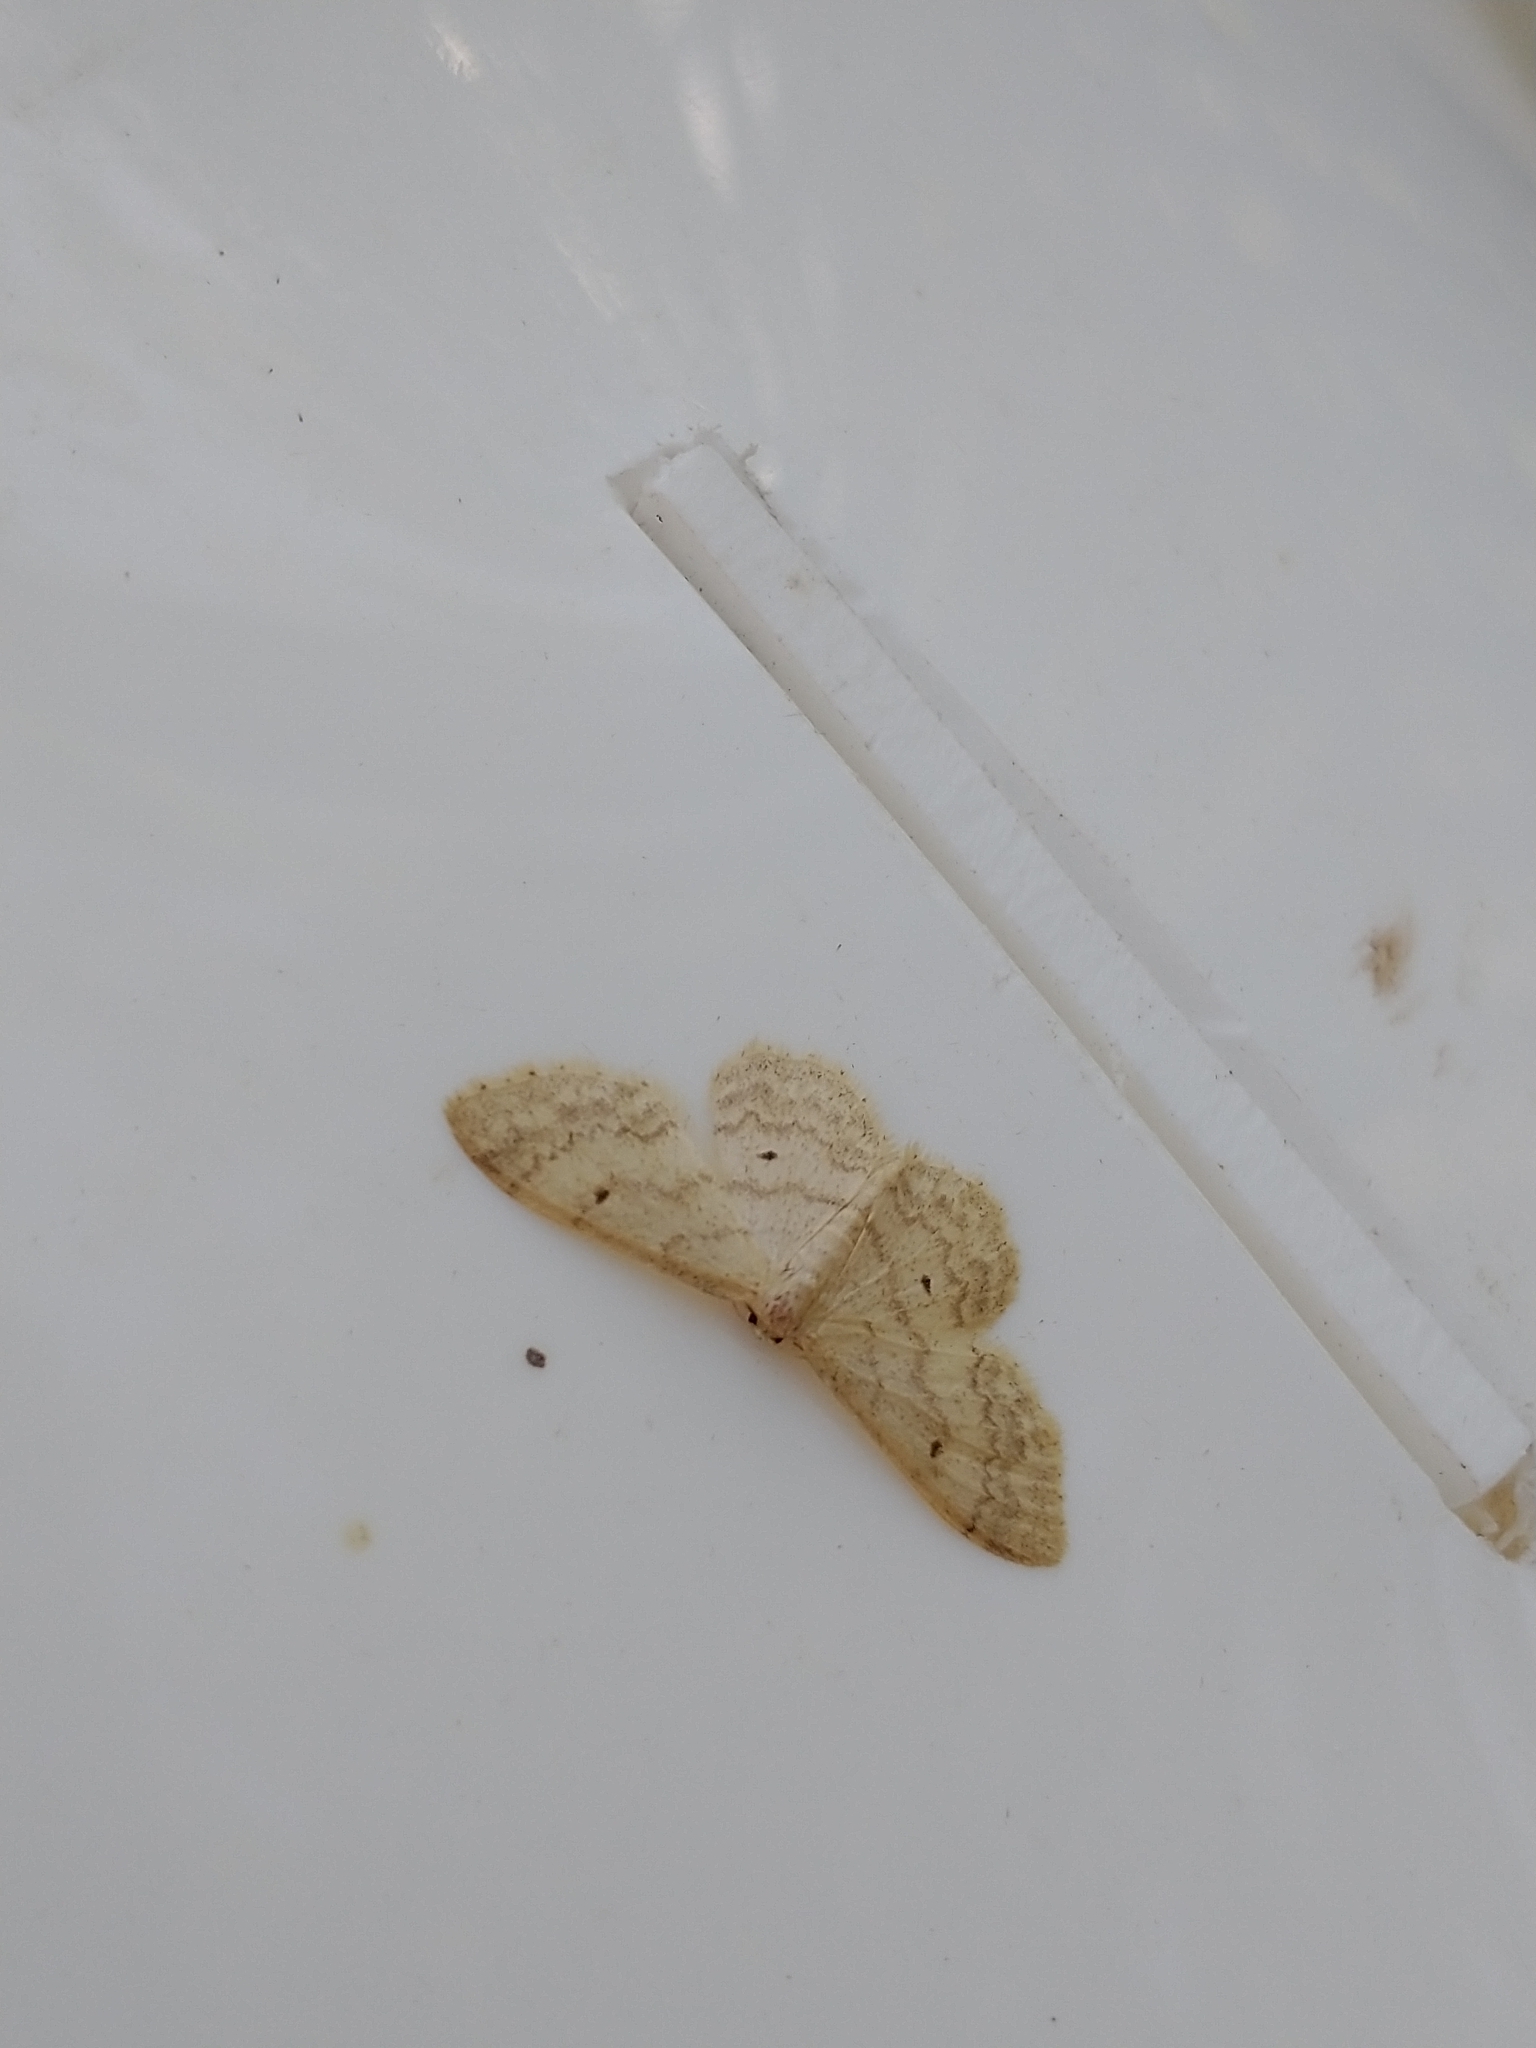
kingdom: Animalia
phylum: Arthropoda
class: Insecta
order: Lepidoptera
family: Geometridae
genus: Idaea
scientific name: Idaea biselata
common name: Small fan-footed wave
